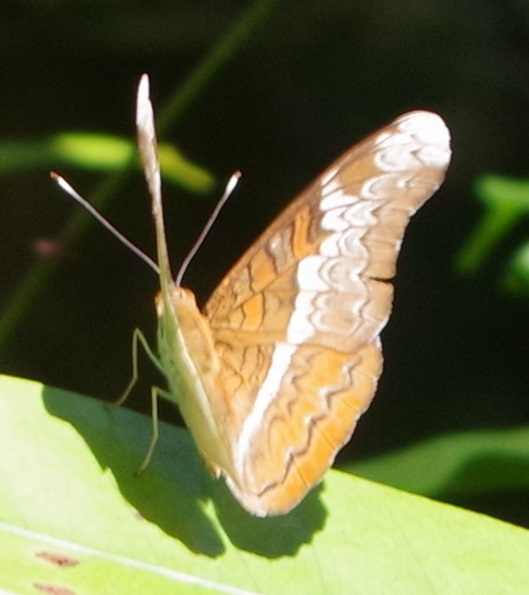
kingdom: Animalia
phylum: Arthropoda
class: Insecta
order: Lepidoptera
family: Nymphalidae
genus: Lebadea
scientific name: Lebadea martha
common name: Knight
